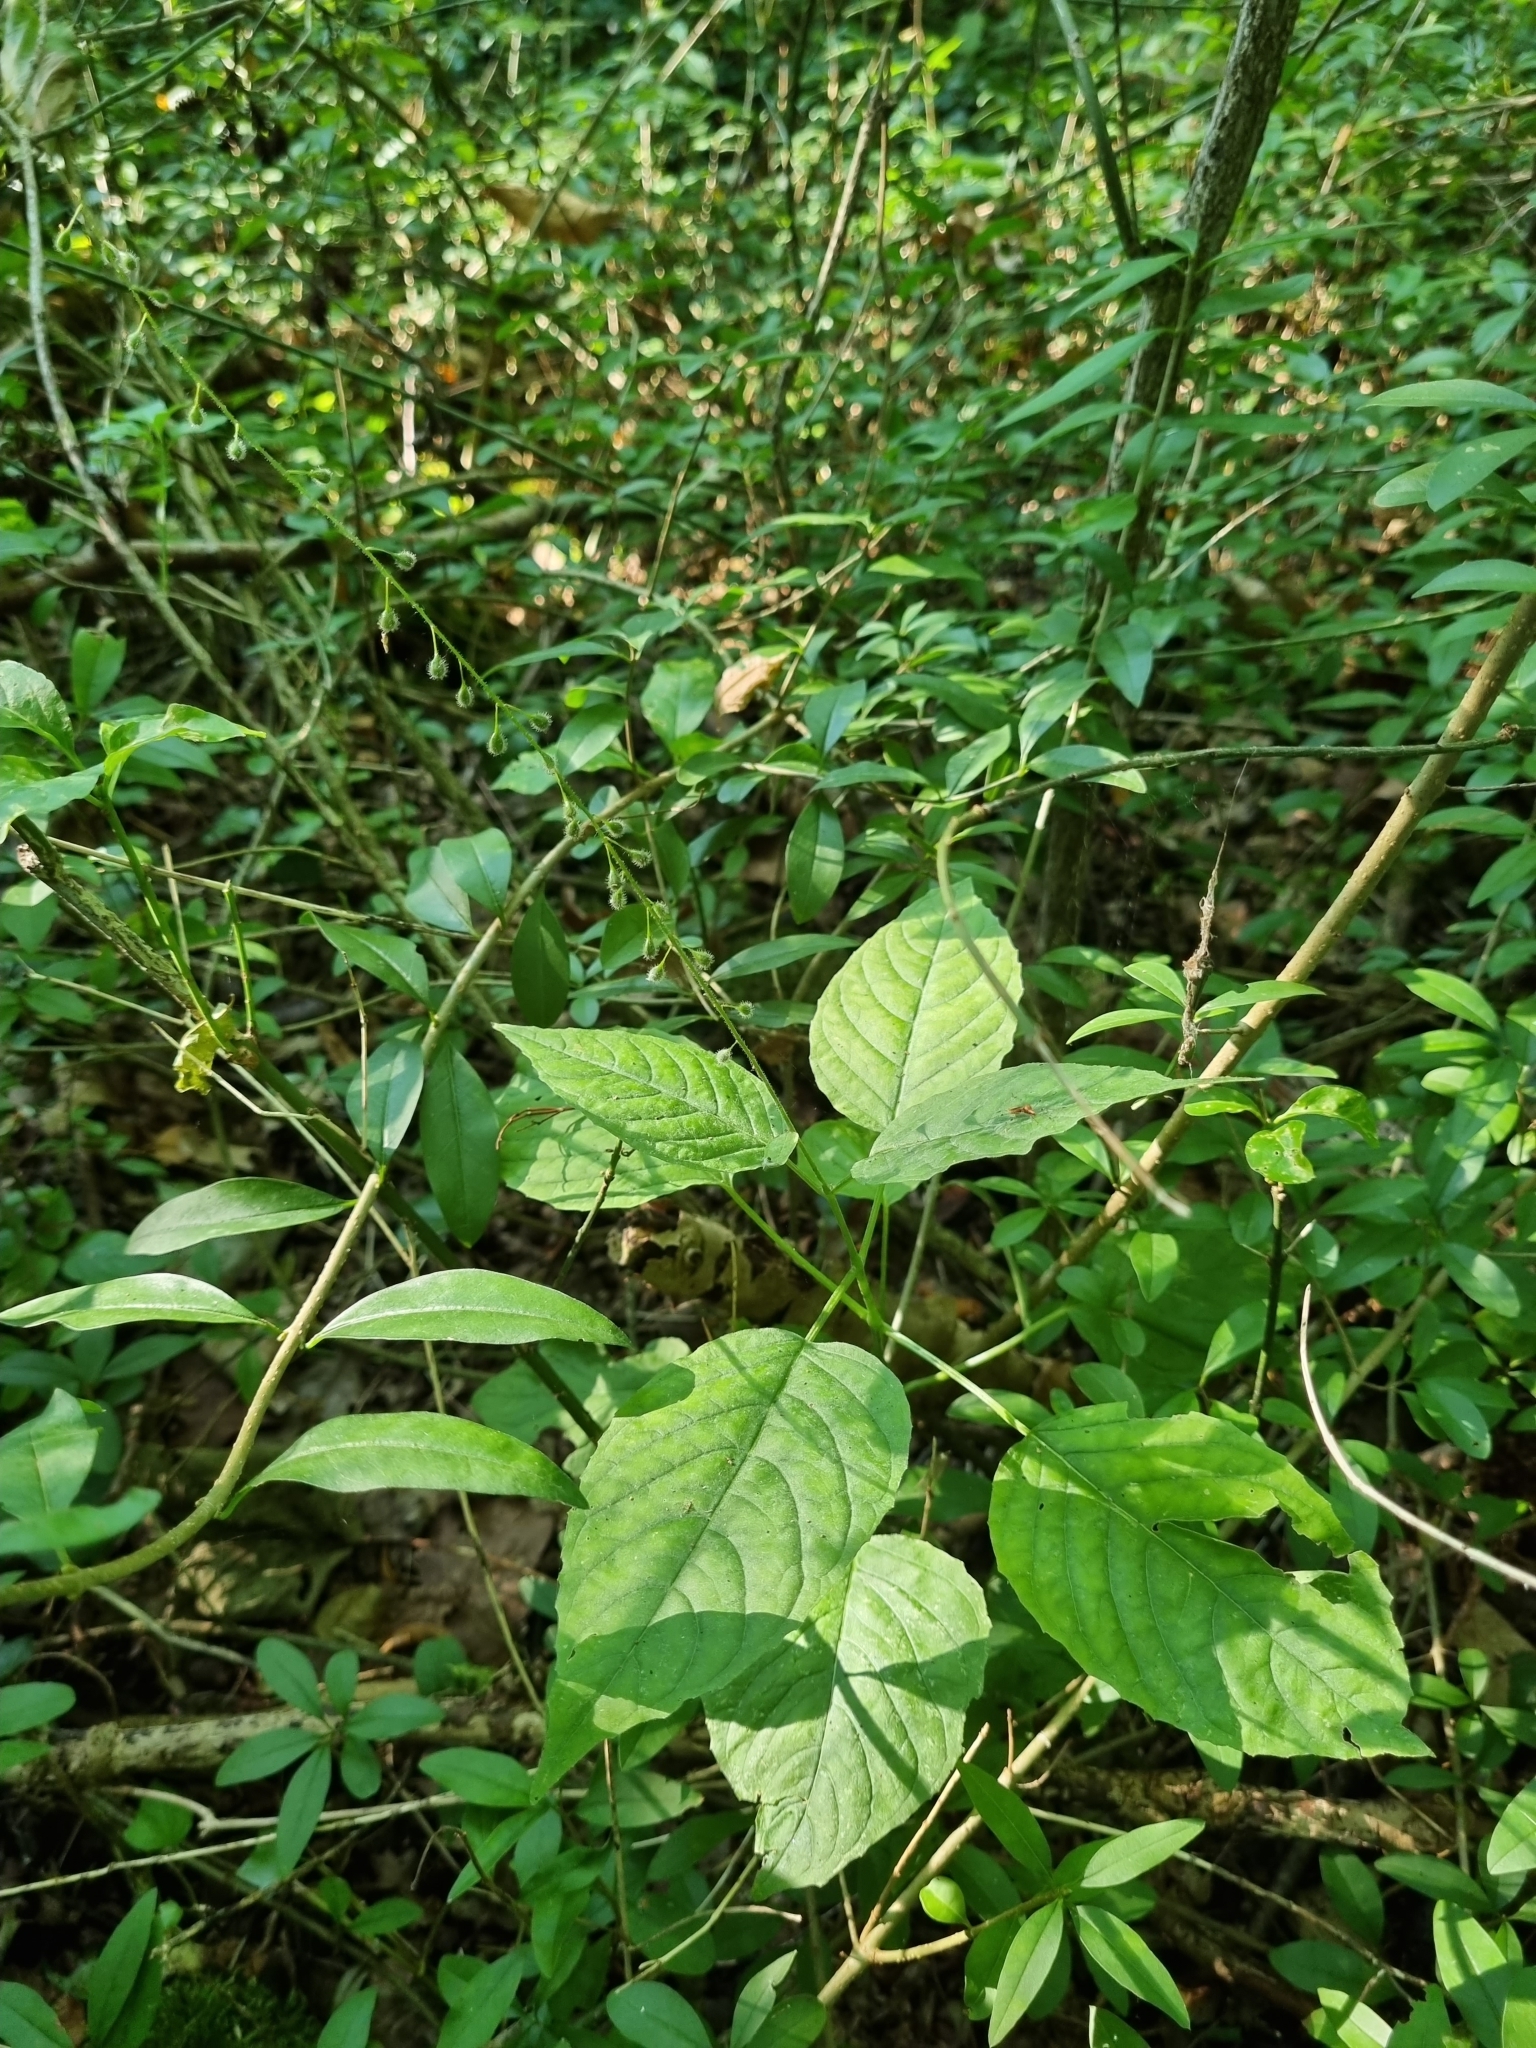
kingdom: Plantae
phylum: Tracheophyta
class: Magnoliopsida
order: Myrtales
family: Onagraceae
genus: Circaea
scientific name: Circaea lutetiana
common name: Enchanter's-nightshade
